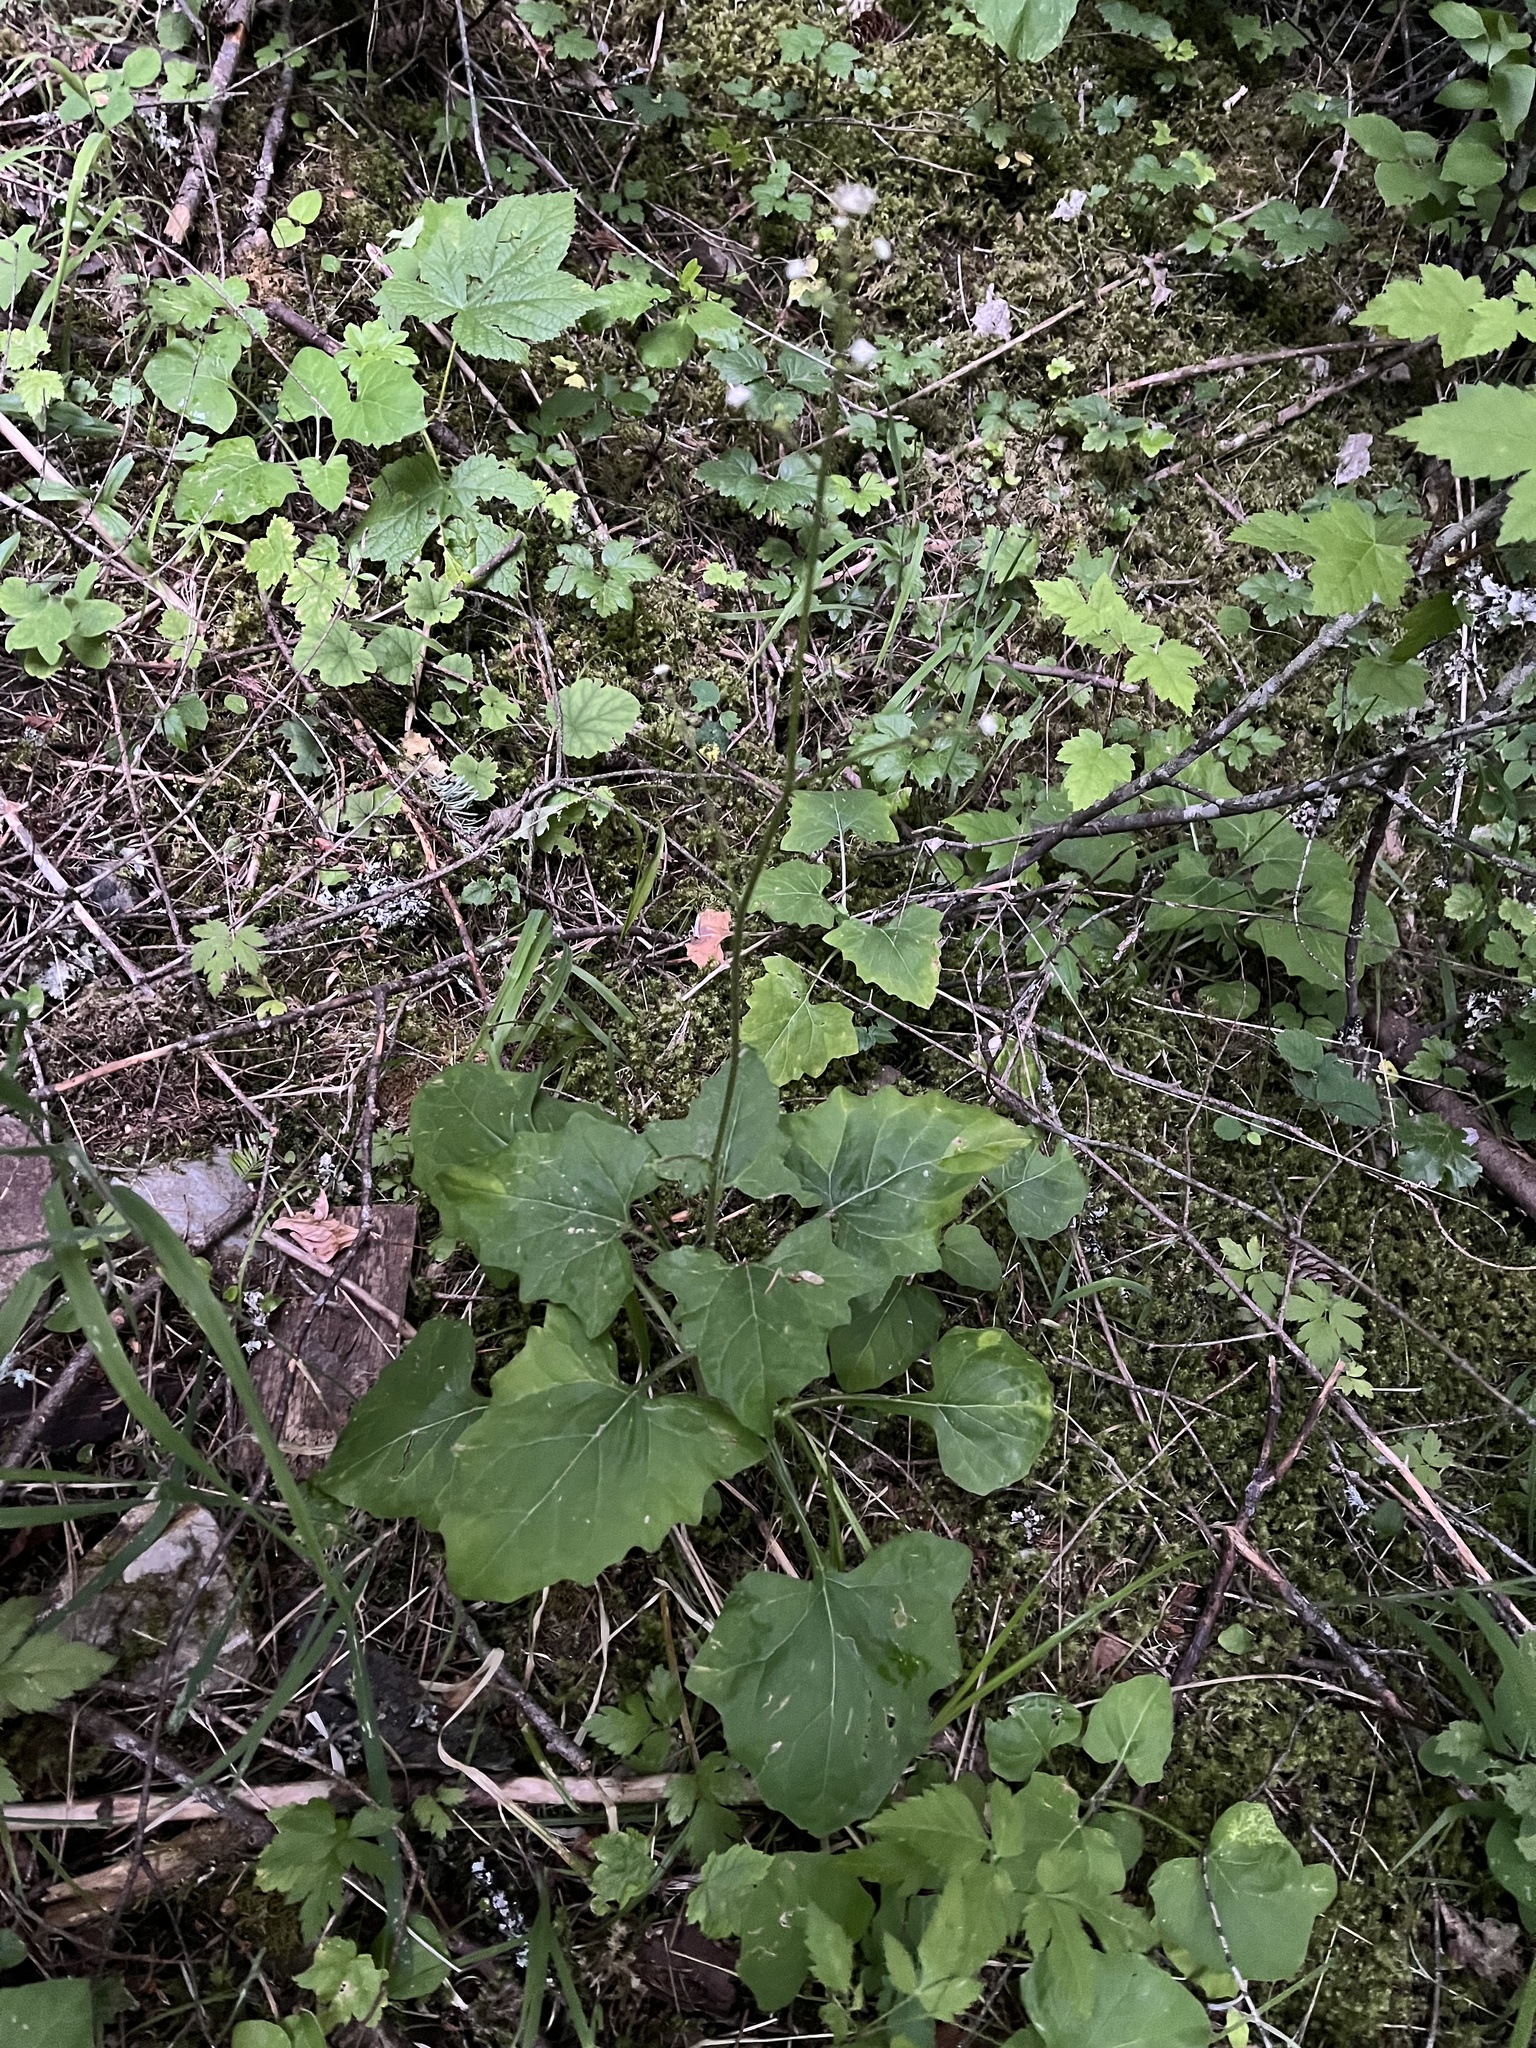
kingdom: Plantae
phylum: Tracheophyta
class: Magnoliopsida
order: Asterales
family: Asteraceae
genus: Adenocaulon
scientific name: Adenocaulon bicolor
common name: Trailplant
